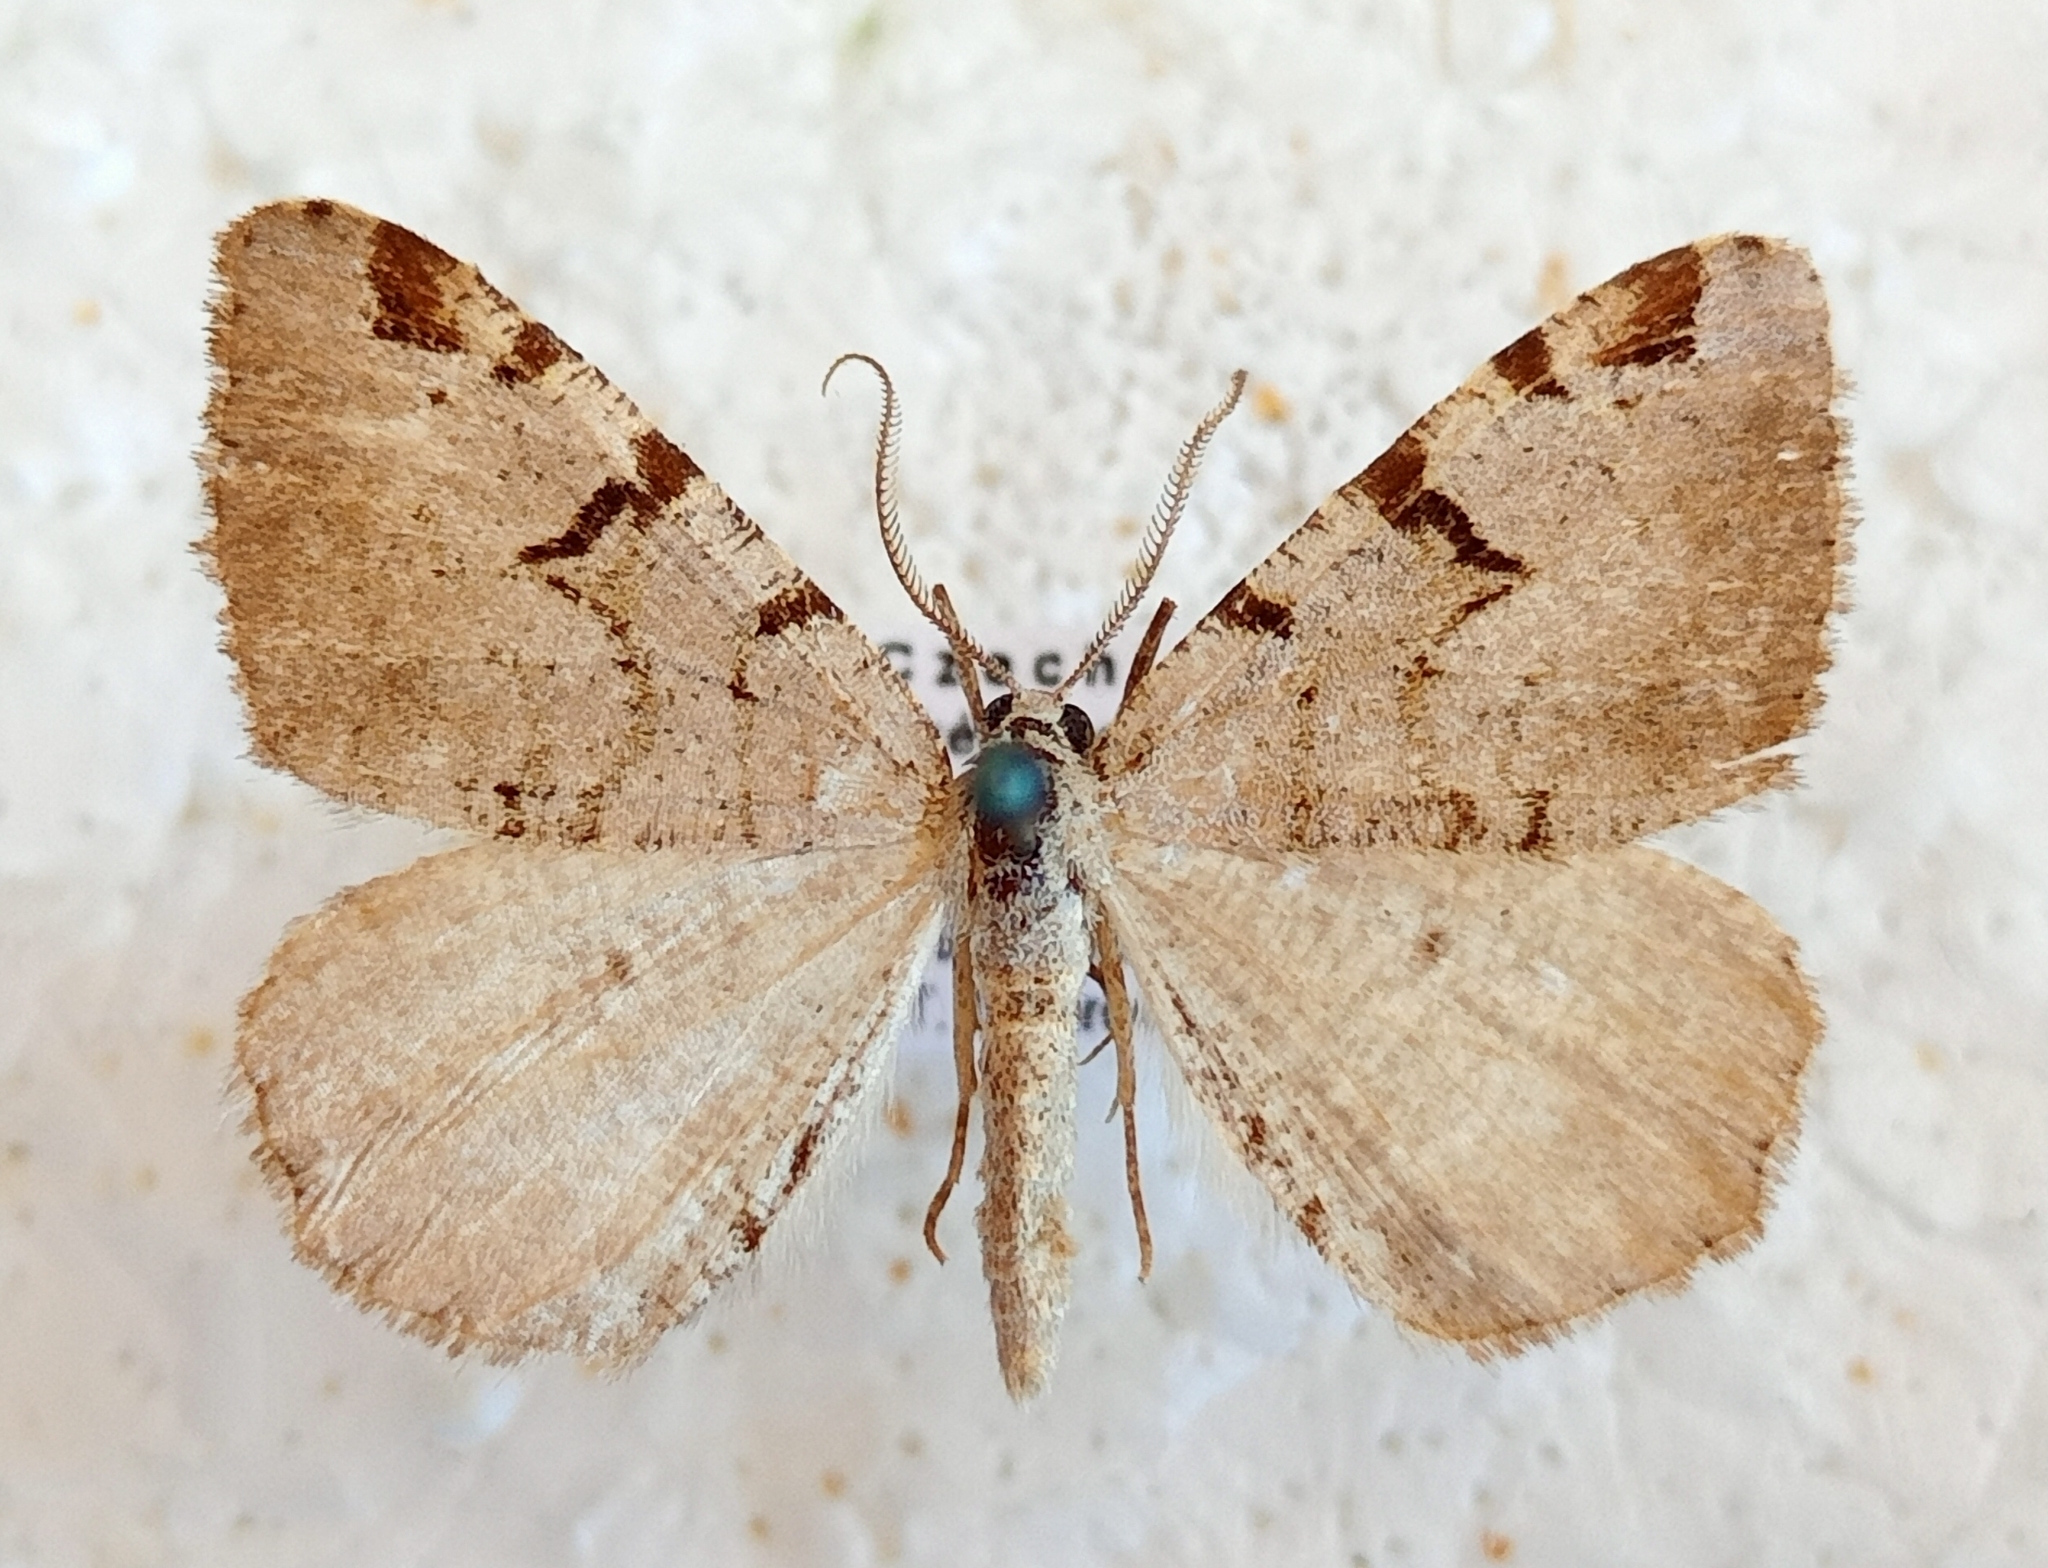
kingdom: Animalia
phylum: Arthropoda
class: Insecta
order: Lepidoptera
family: Geometridae
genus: Macaria
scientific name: Macaria wauaria
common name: V-moth
